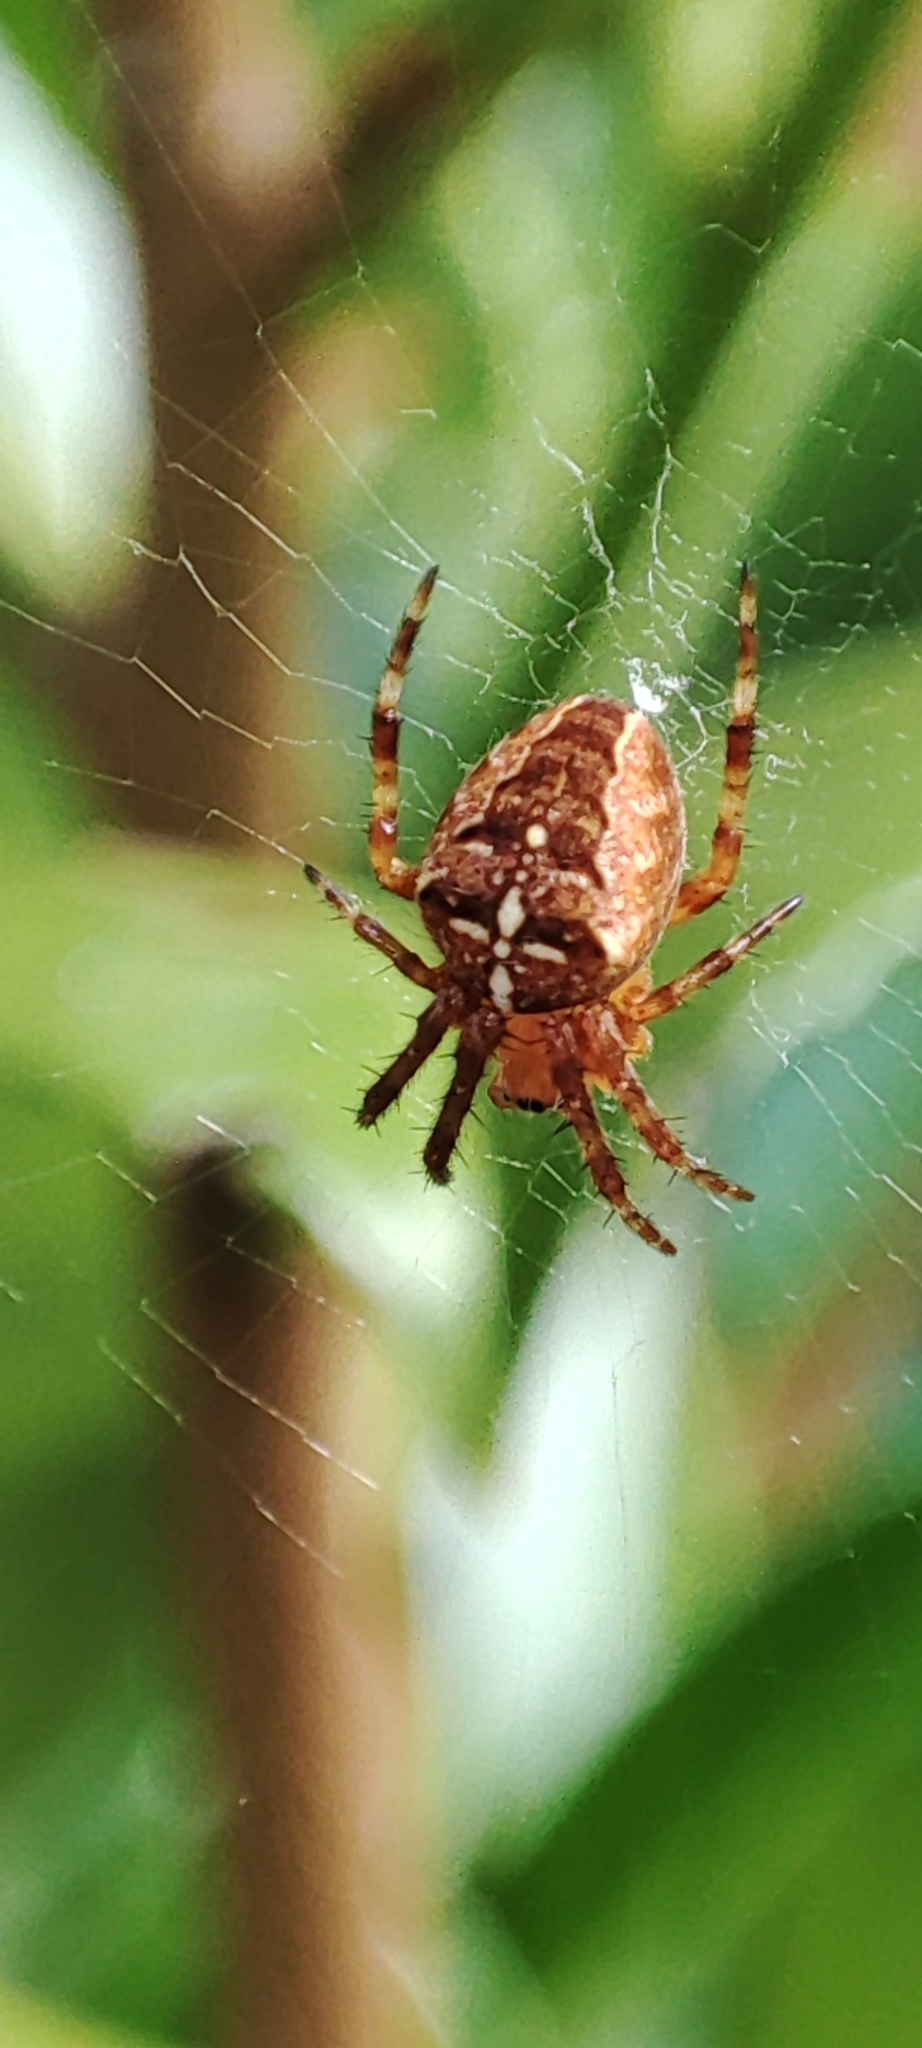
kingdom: Animalia
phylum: Arthropoda
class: Arachnida
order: Araneae
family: Araneidae
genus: Araneus
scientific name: Araneus diadematus
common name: Cross orbweaver
